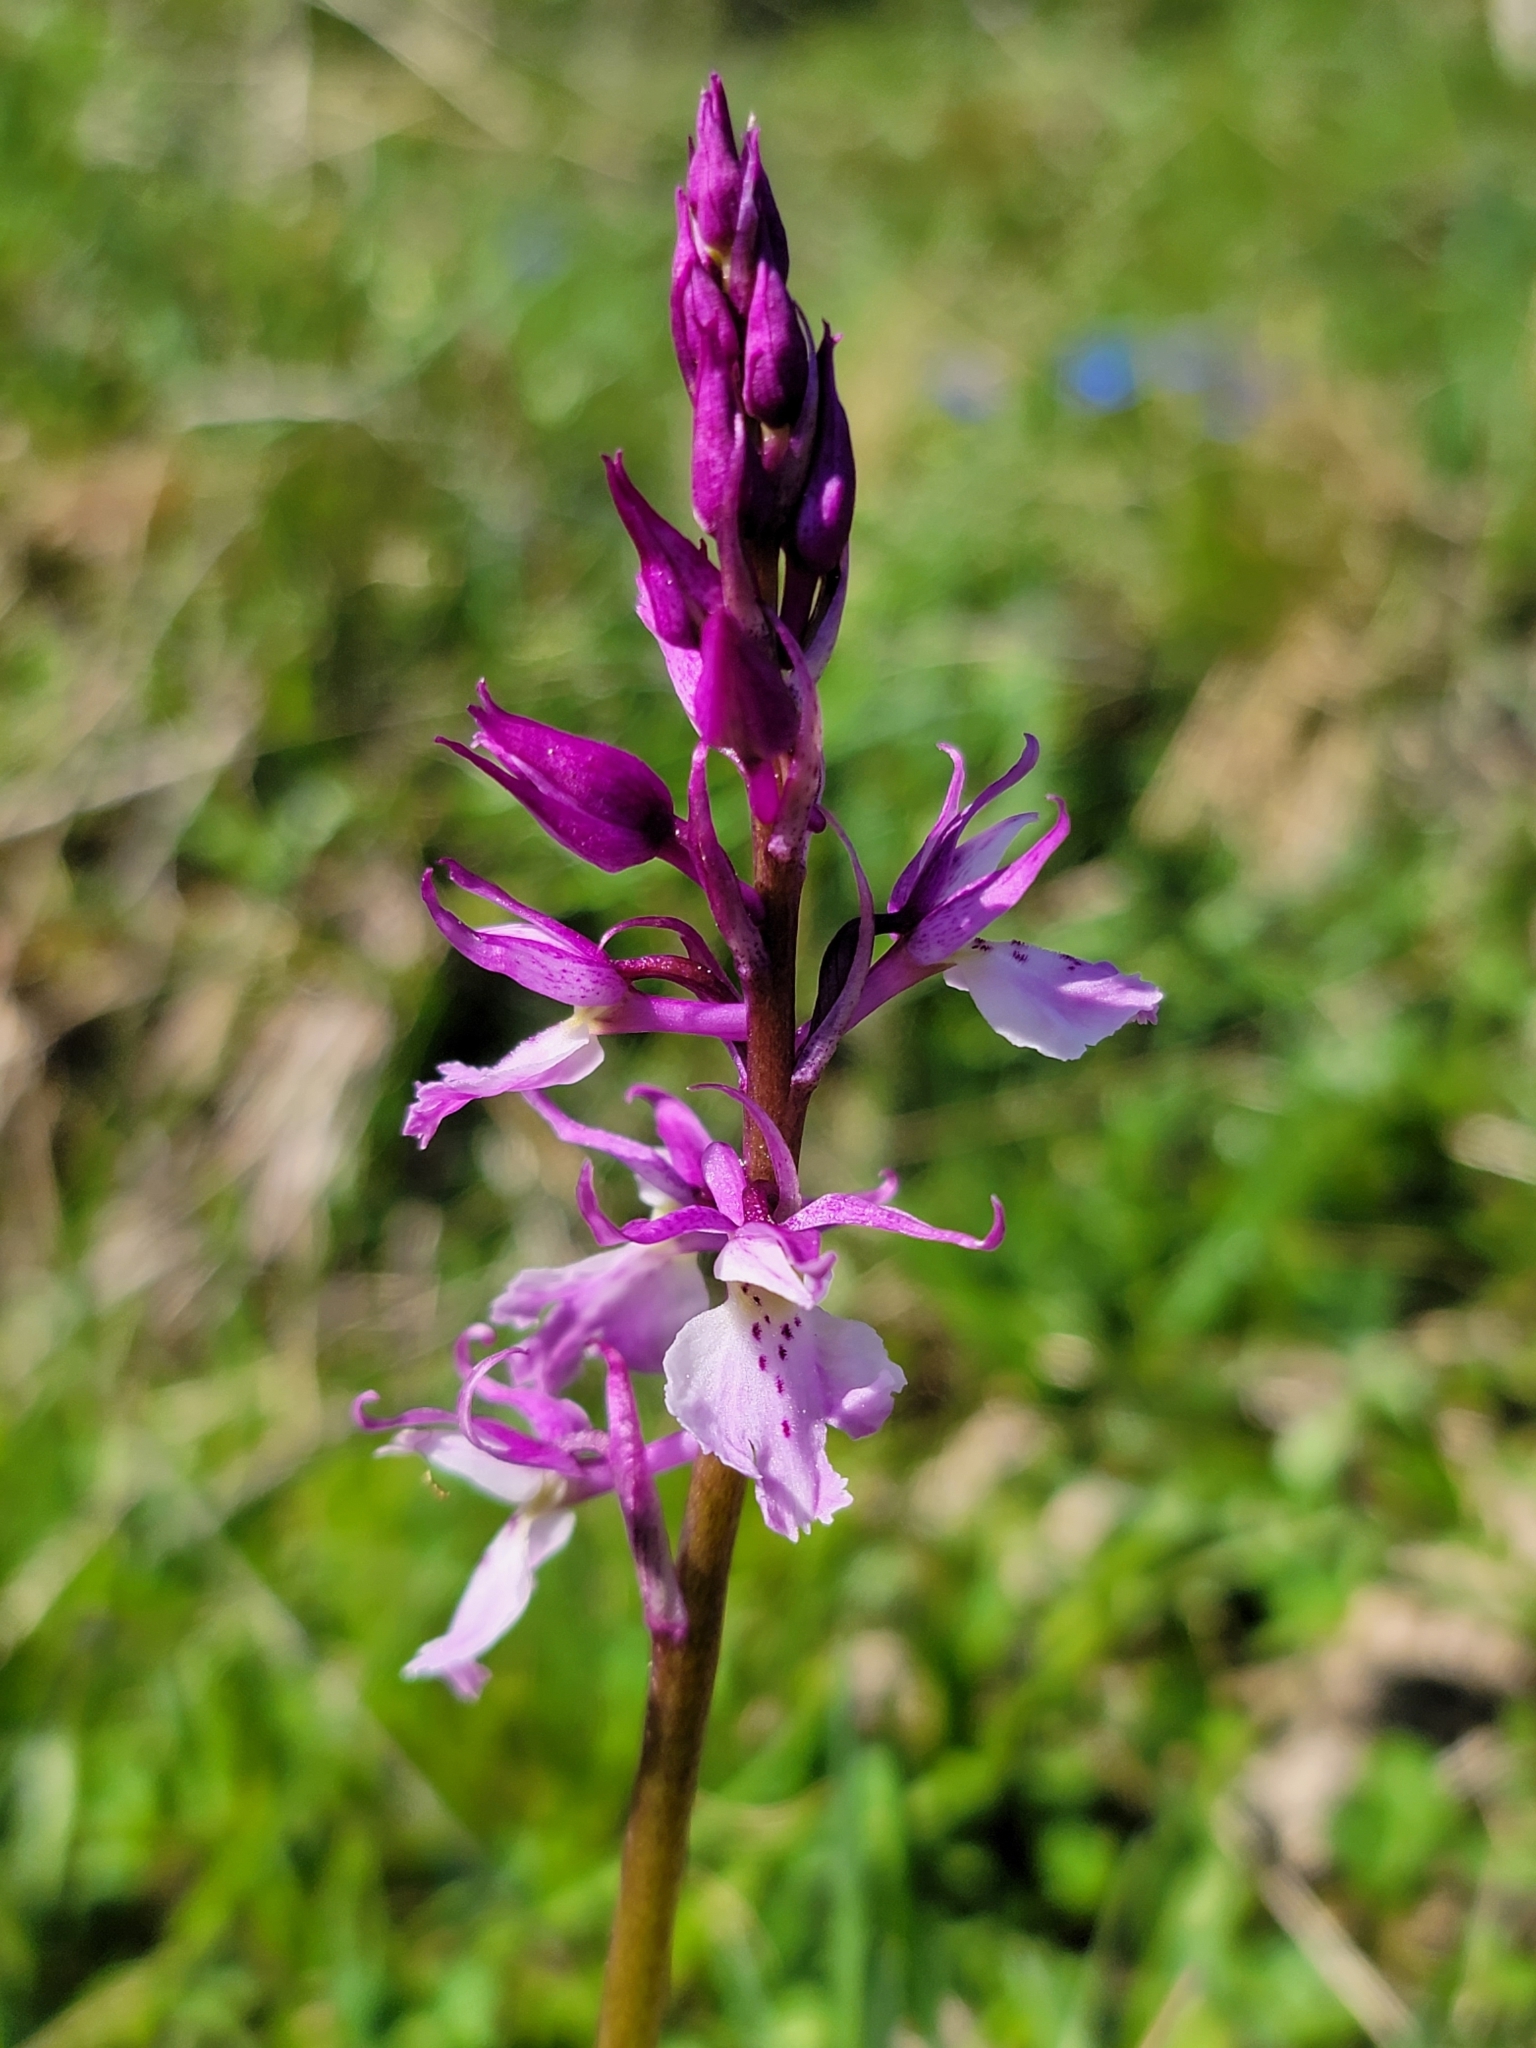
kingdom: Plantae
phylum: Tracheophyta
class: Liliopsida
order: Asparagales
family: Orchidaceae
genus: Orchis
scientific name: Orchis mascula
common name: Early-purple orchid
